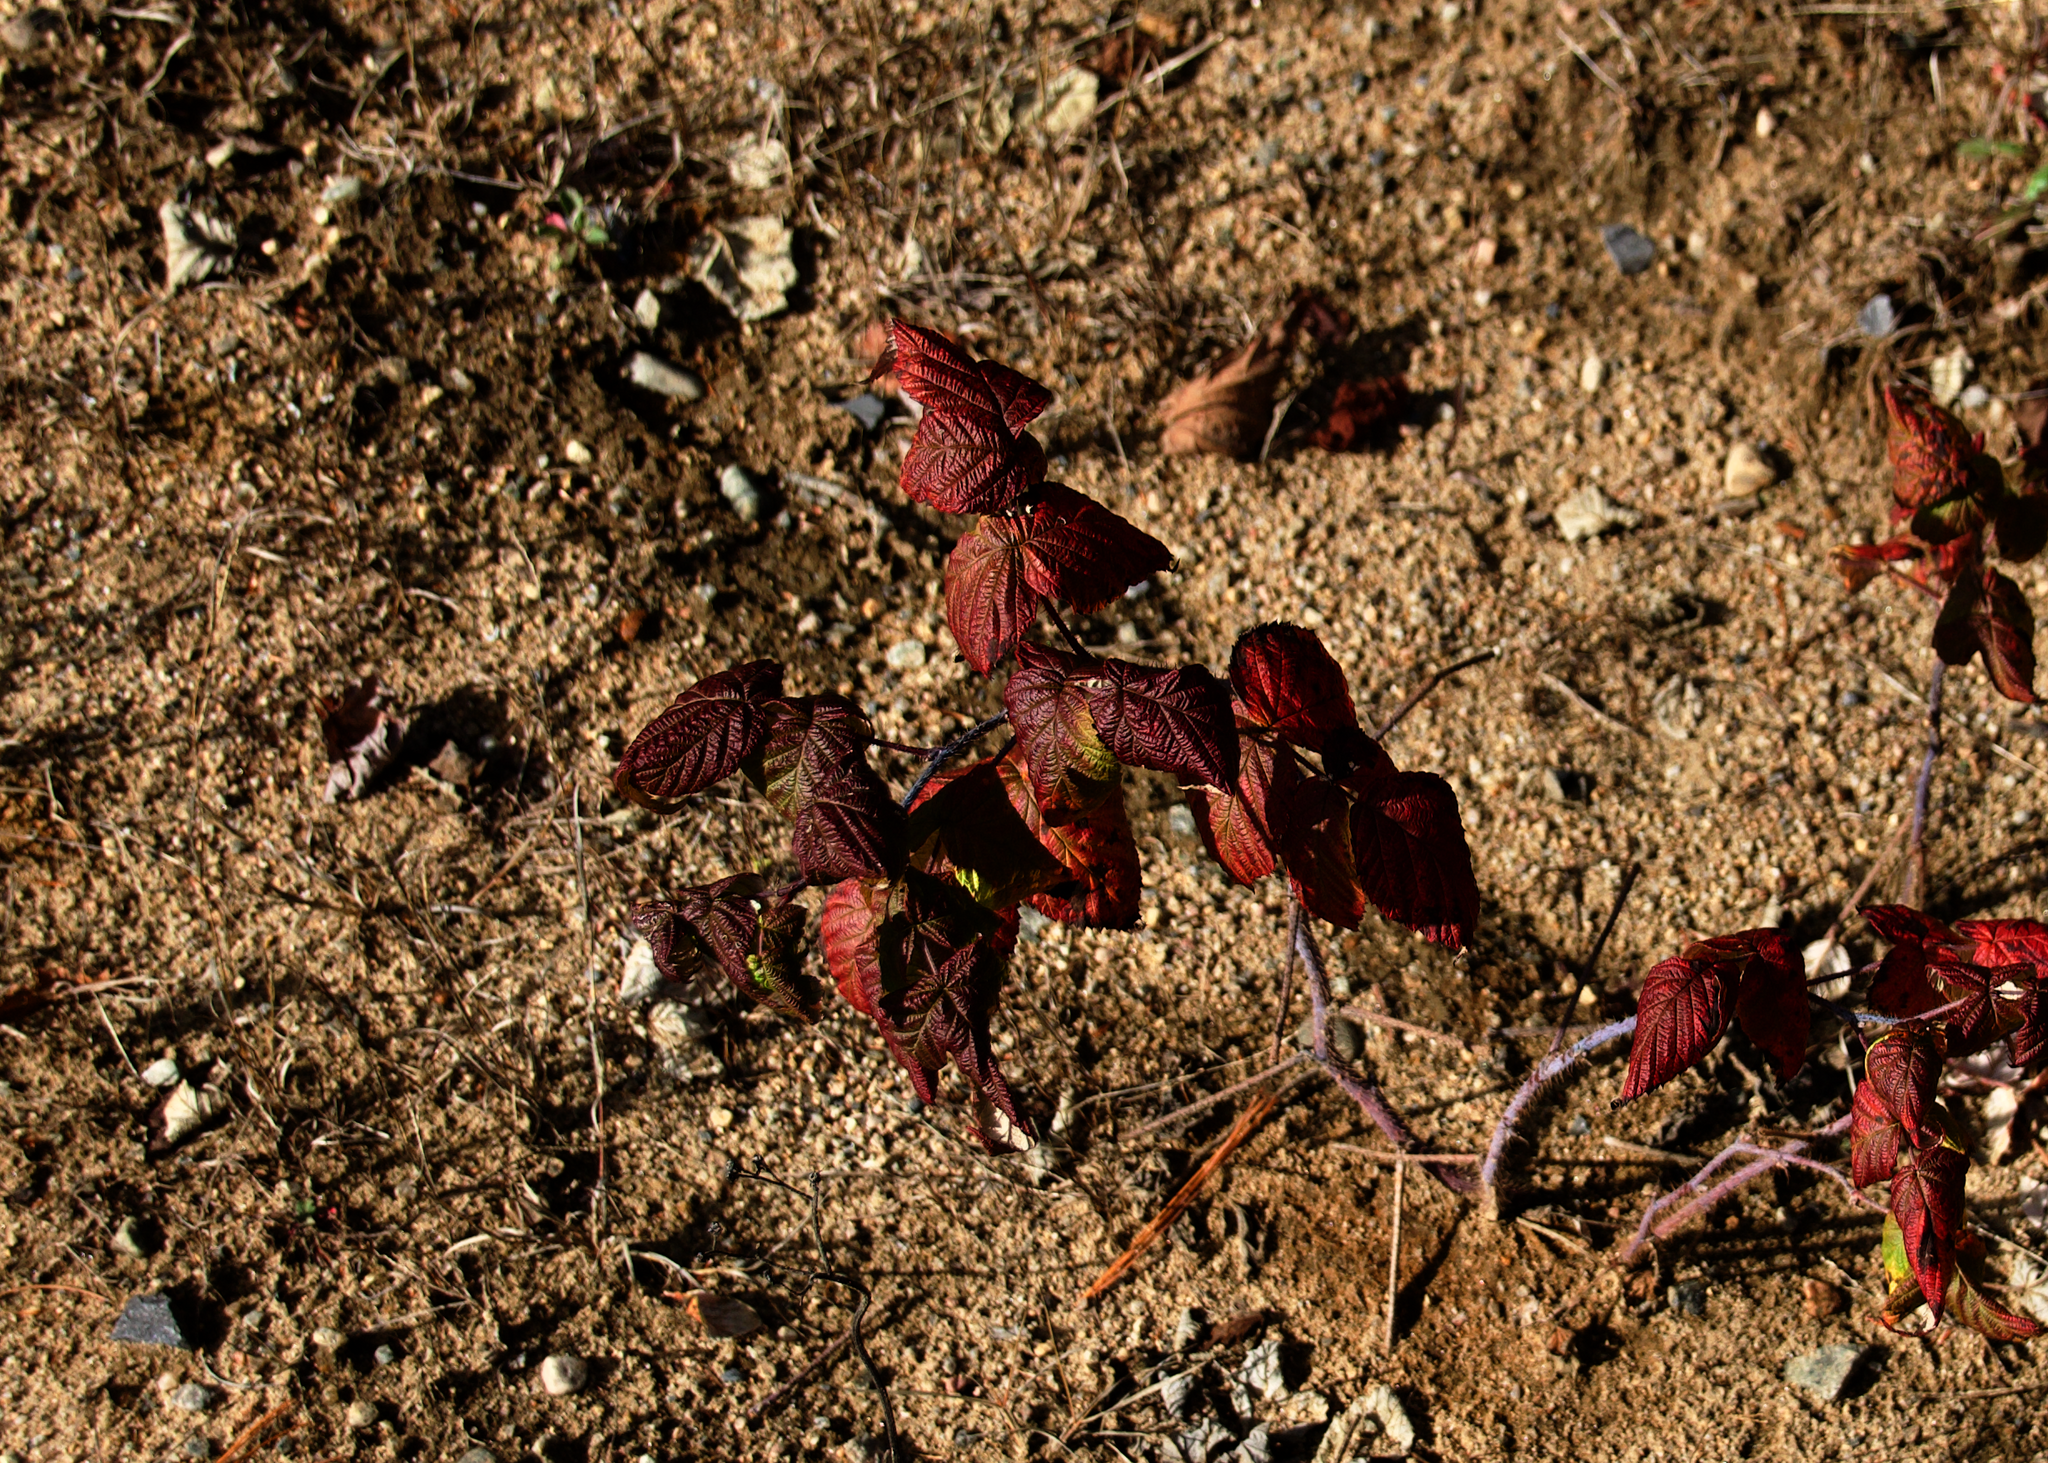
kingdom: Plantae
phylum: Tracheophyta
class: Magnoliopsida
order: Rosales
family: Rosaceae
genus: Rubus
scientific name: Rubus idaeus
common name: Raspberry
